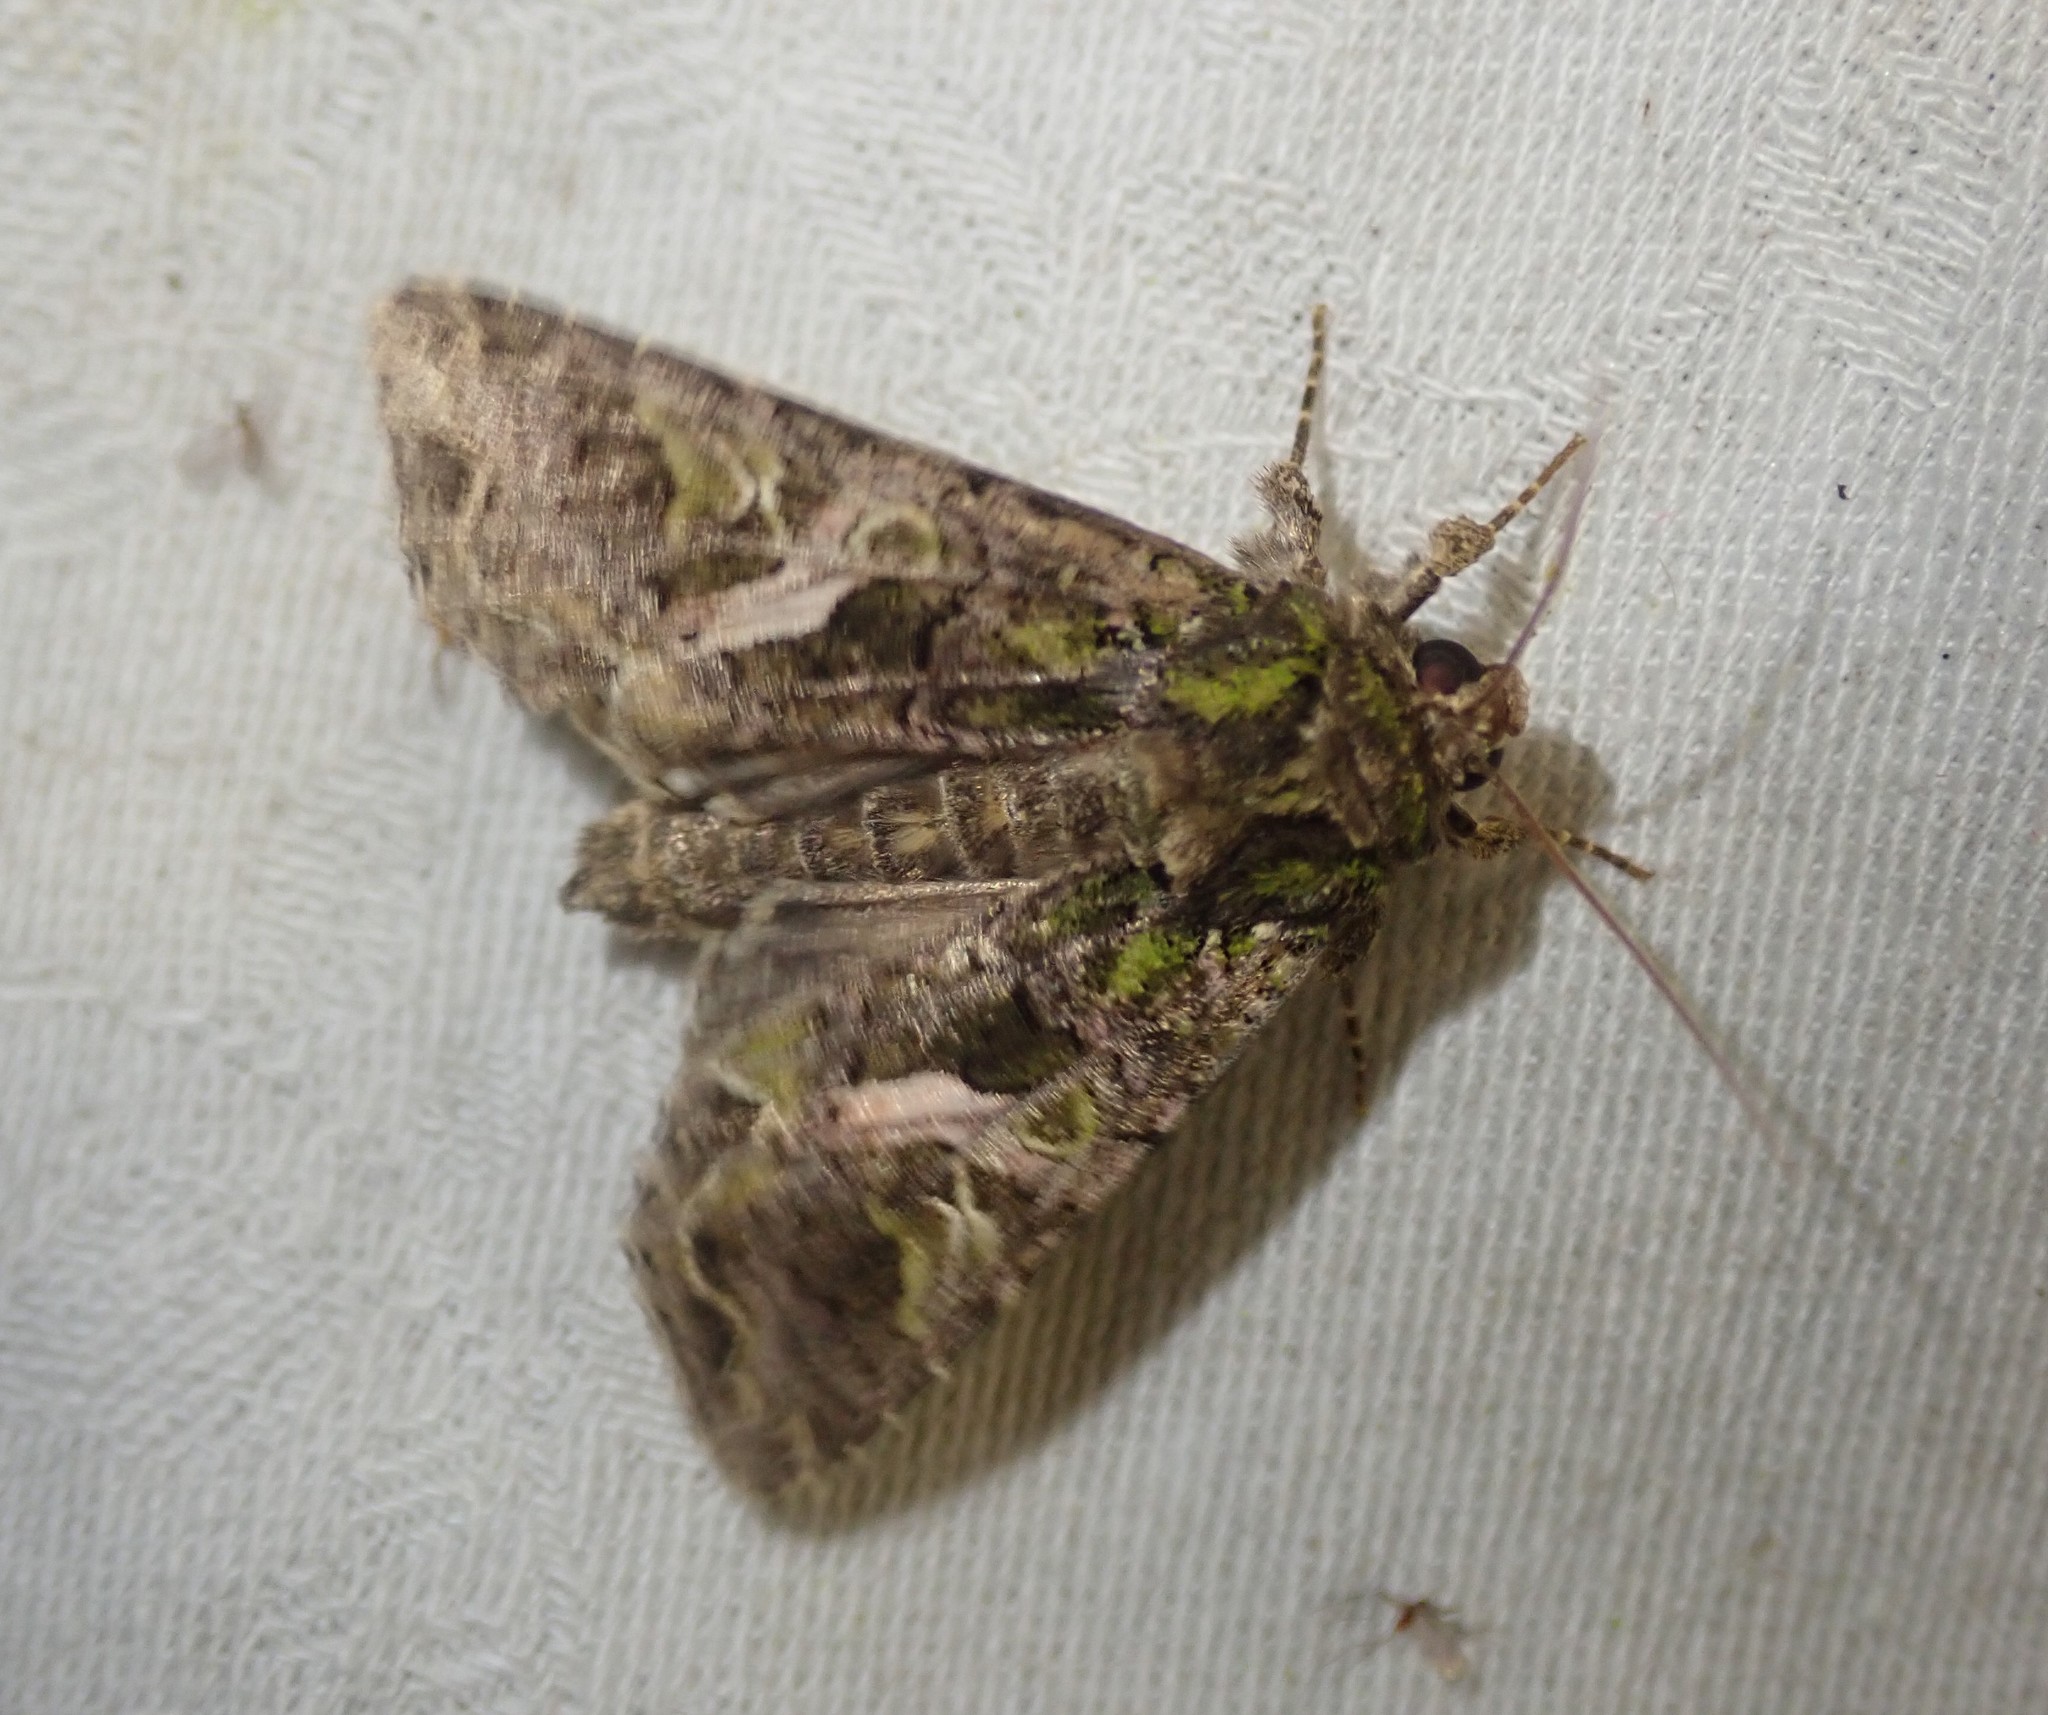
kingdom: Animalia
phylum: Arthropoda
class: Insecta
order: Lepidoptera
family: Noctuidae
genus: Trachea
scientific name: Trachea atriplicis
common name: Orache moth
